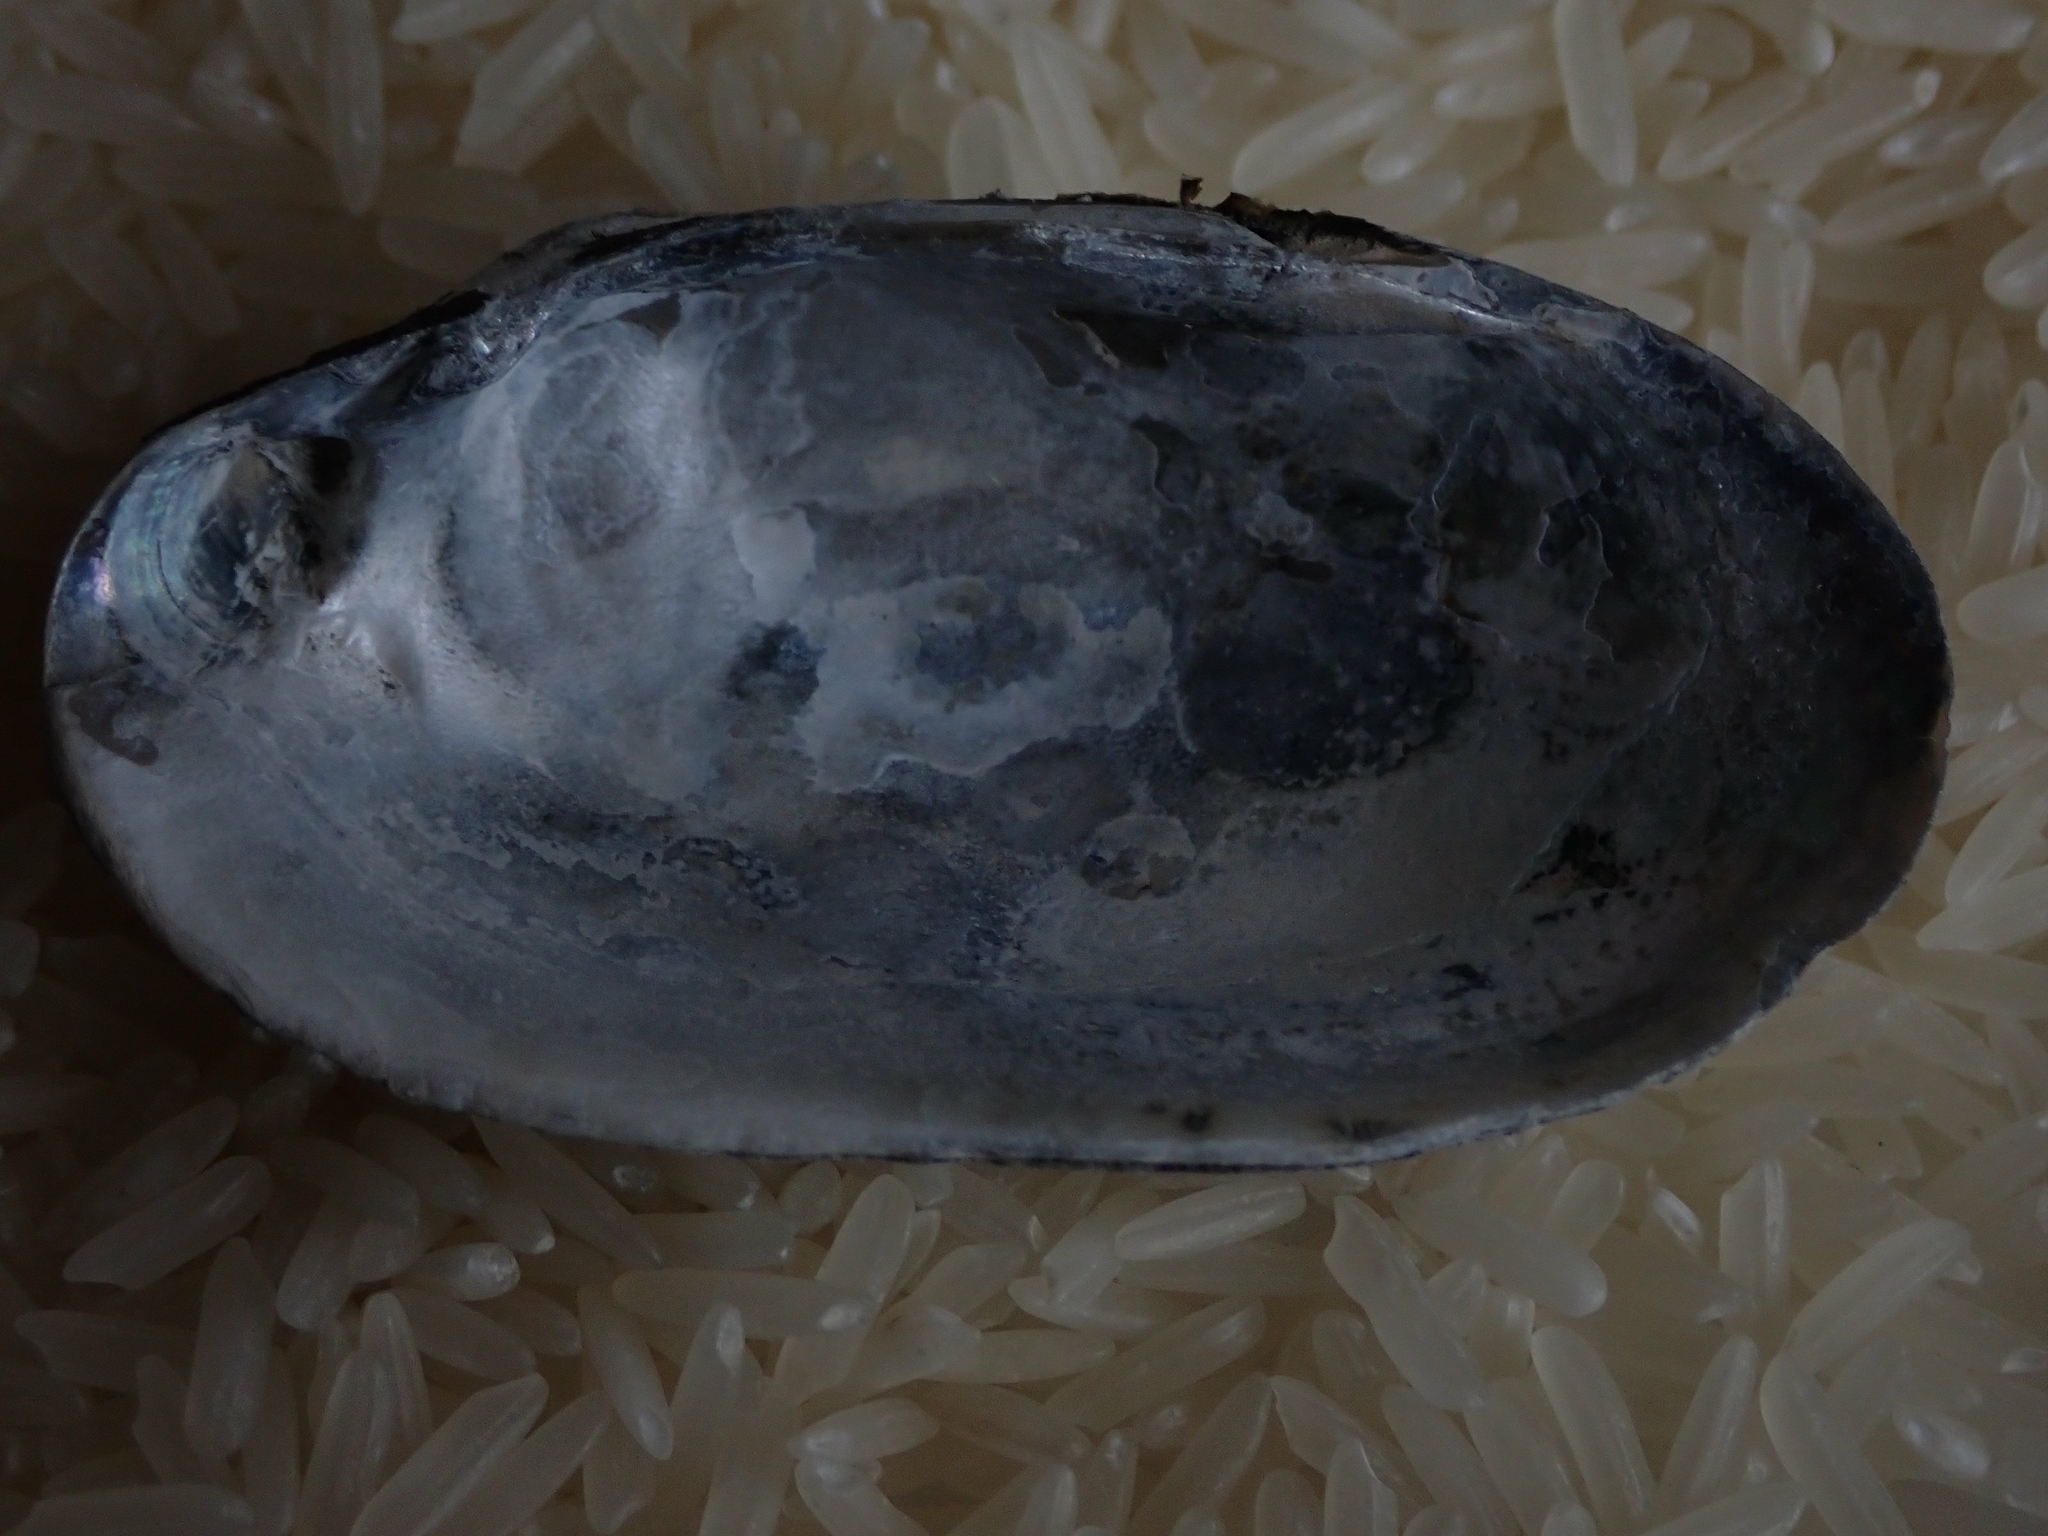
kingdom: Animalia
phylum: Mollusca
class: Bivalvia
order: Unionida
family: Unionidae
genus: Lampsilis
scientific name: Lampsilis siliquoidea
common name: Fatmucket
